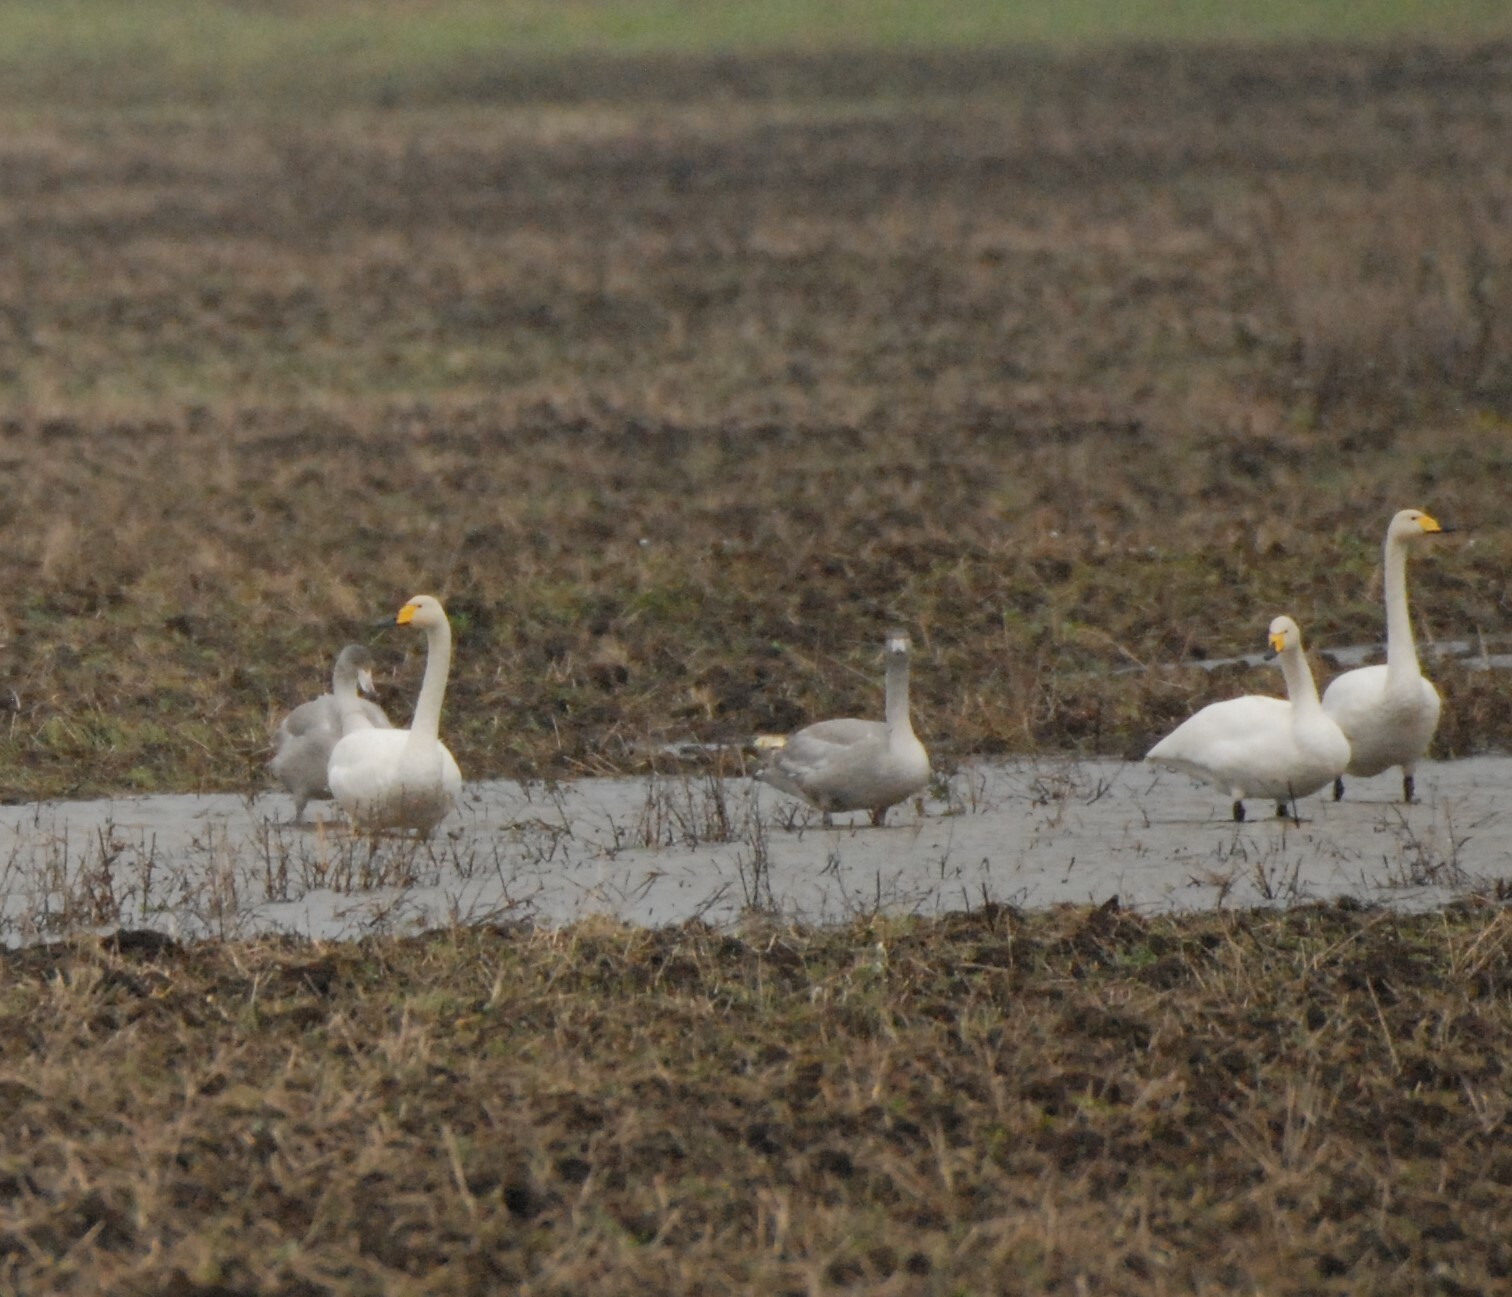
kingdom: Animalia
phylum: Chordata
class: Aves
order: Anseriformes
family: Anatidae
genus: Cygnus
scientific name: Cygnus cygnus
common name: Whooper swan
